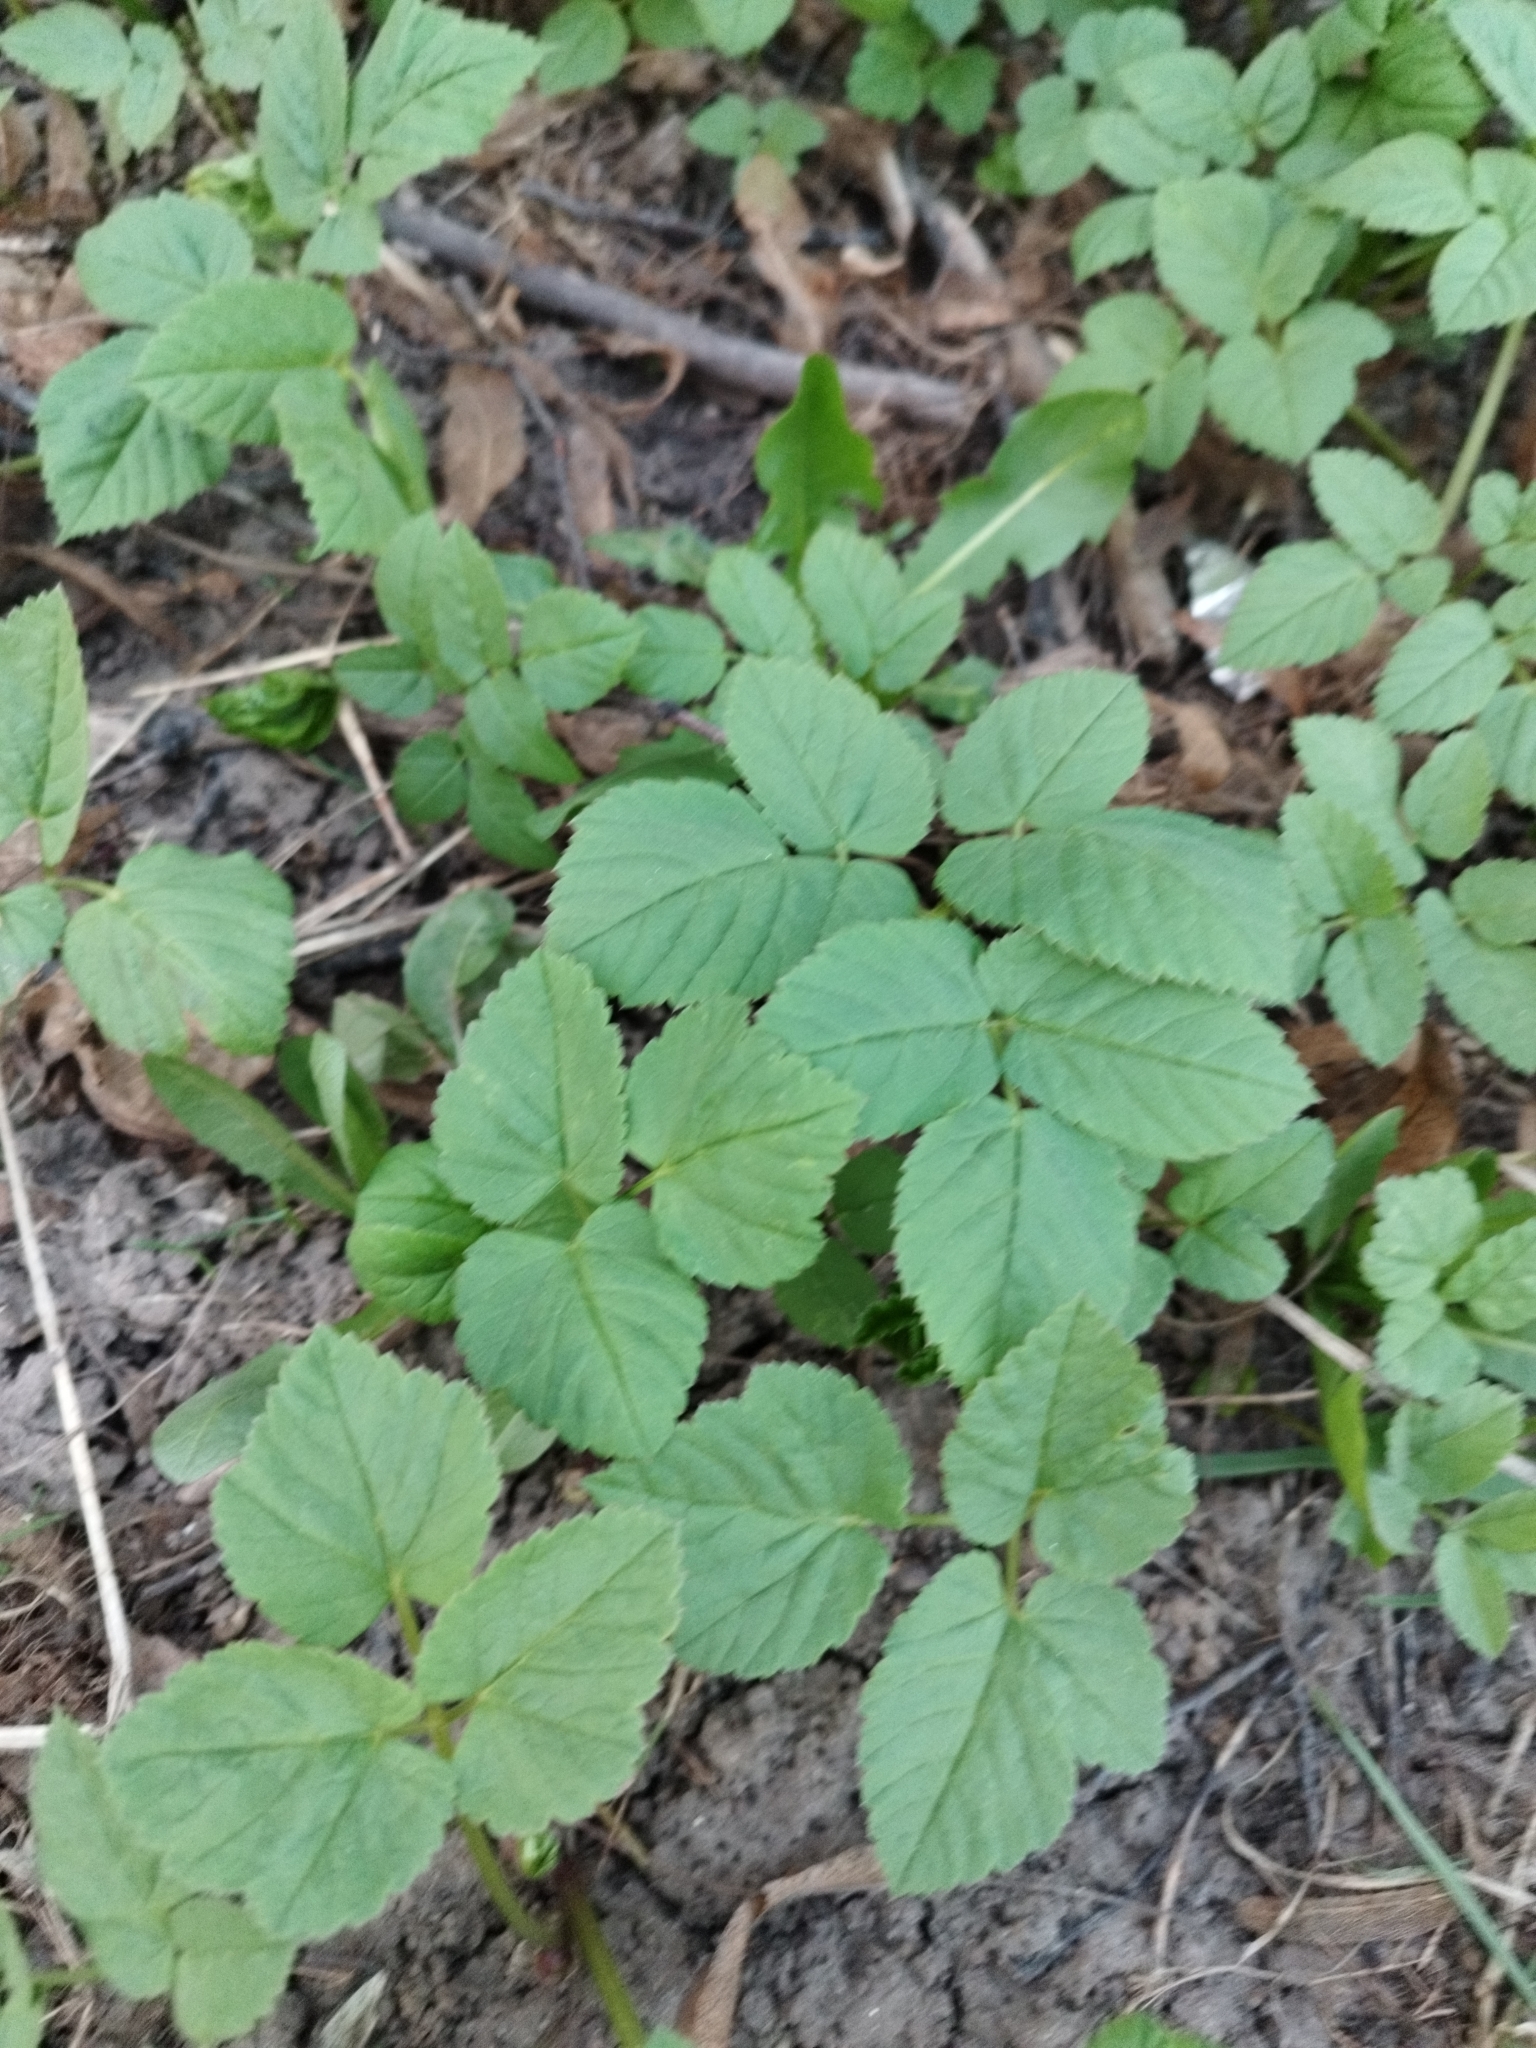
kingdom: Plantae
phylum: Tracheophyta
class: Magnoliopsida
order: Apiales
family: Apiaceae
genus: Aegopodium
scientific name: Aegopodium podagraria
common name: Ground-elder
